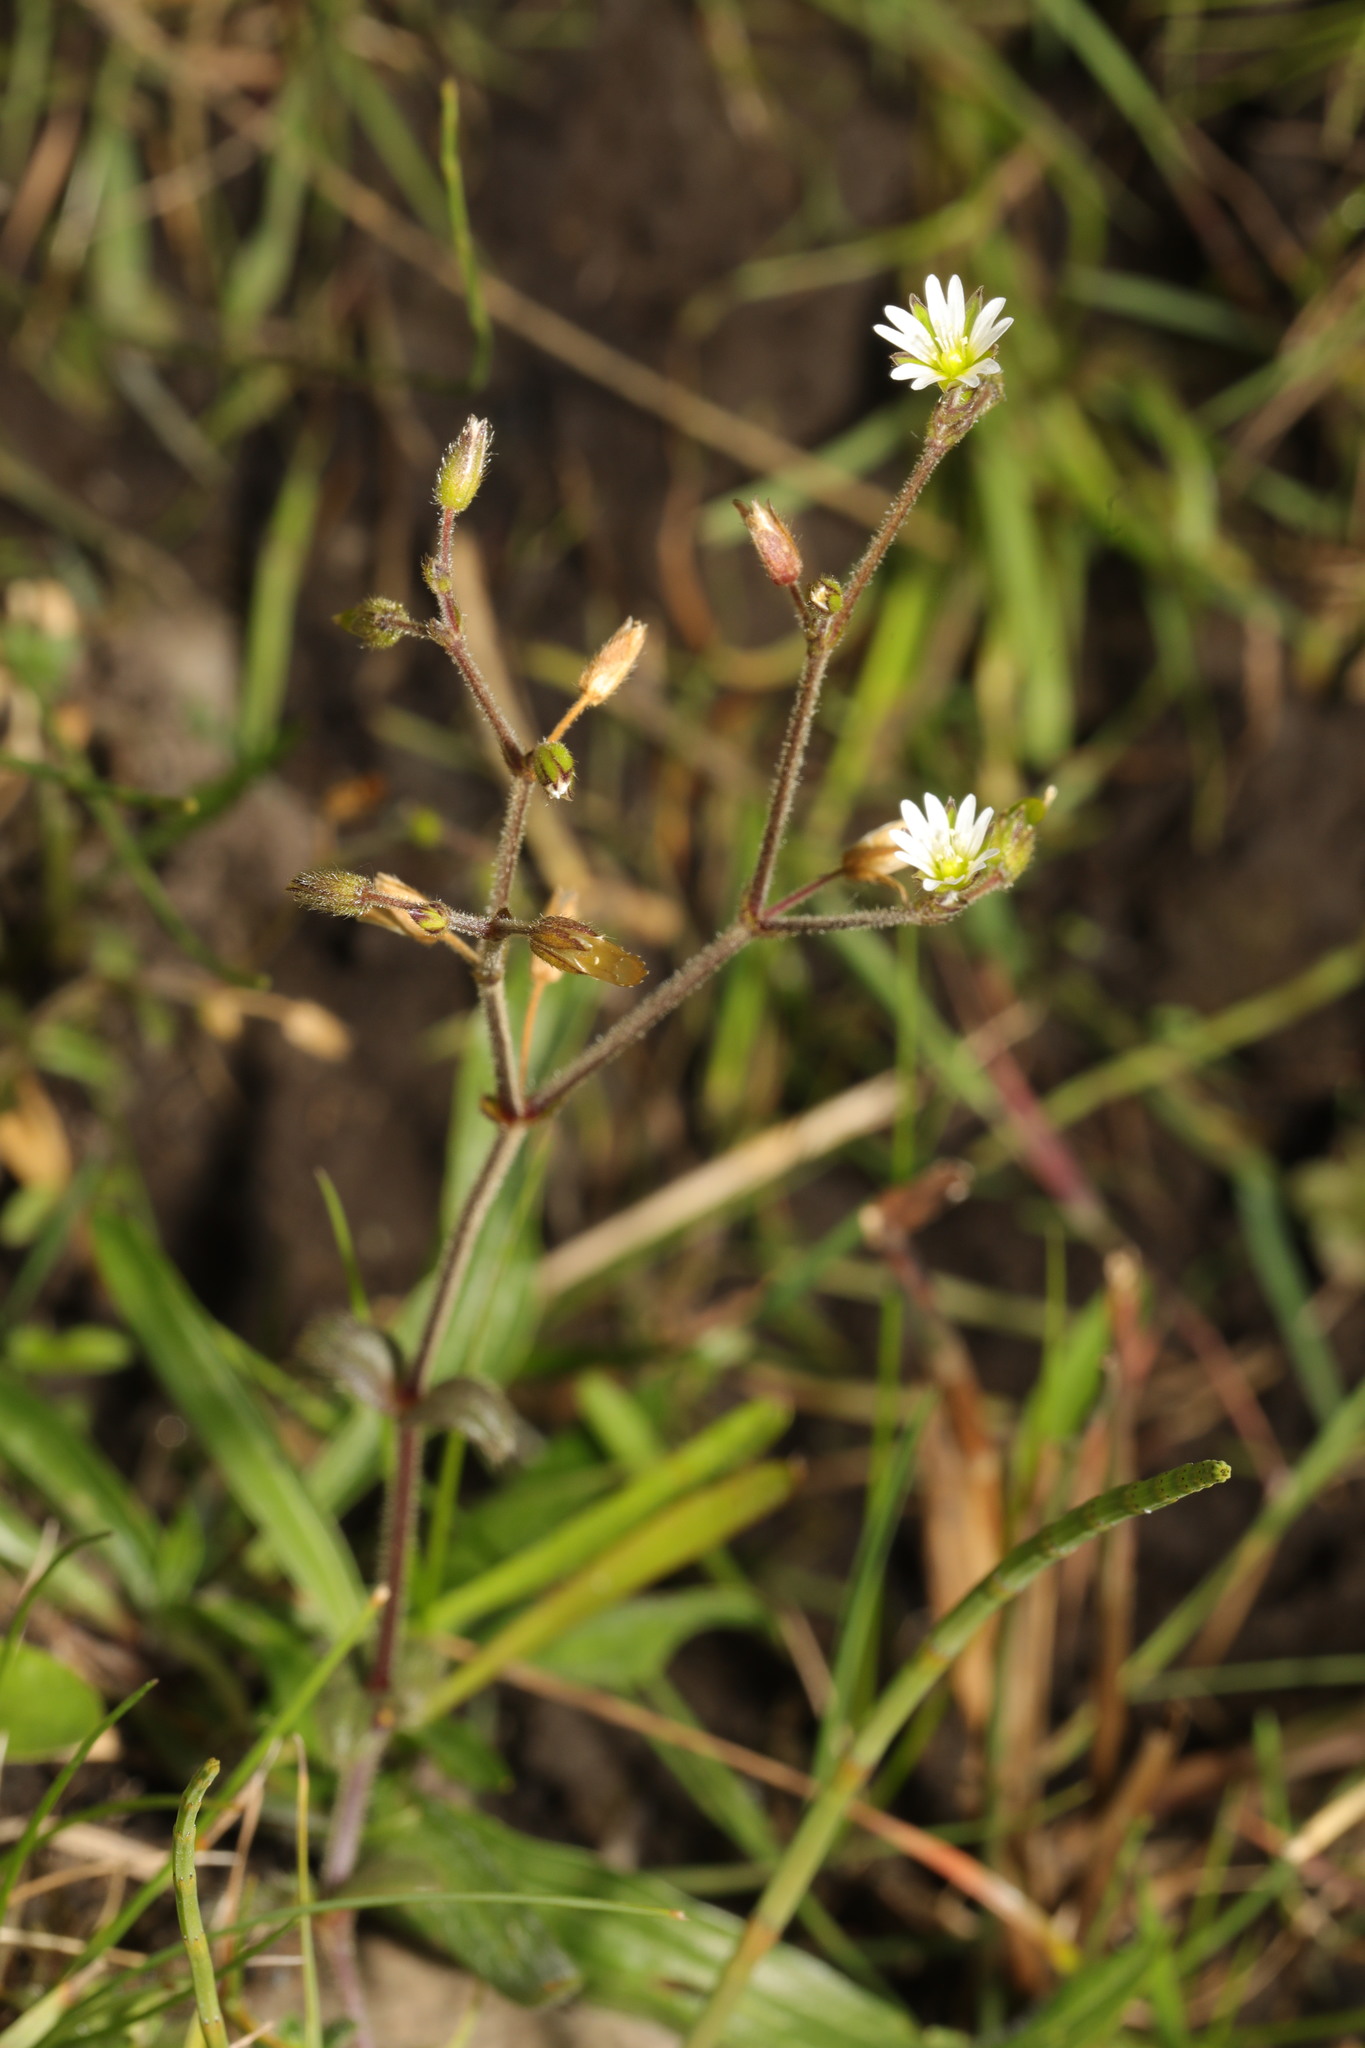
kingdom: Plantae
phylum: Tracheophyta
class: Magnoliopsida
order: Caryophyllales
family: Caryophyllaceae
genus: Cerastium
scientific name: Cerastium fontanum
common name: Common mouse-ear
